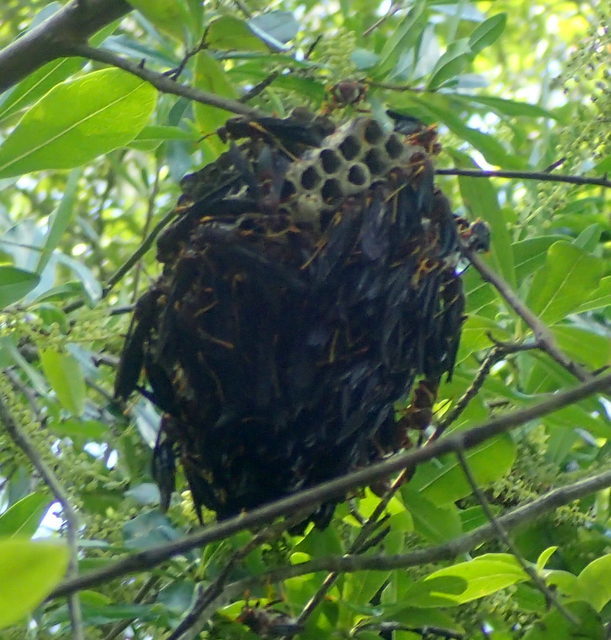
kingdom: Animalia
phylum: Arthropoda
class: Insecta
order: Hymenoptera
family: Eumenidae
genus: Polistes
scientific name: Polistes annularis
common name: Ringed paper wasp
